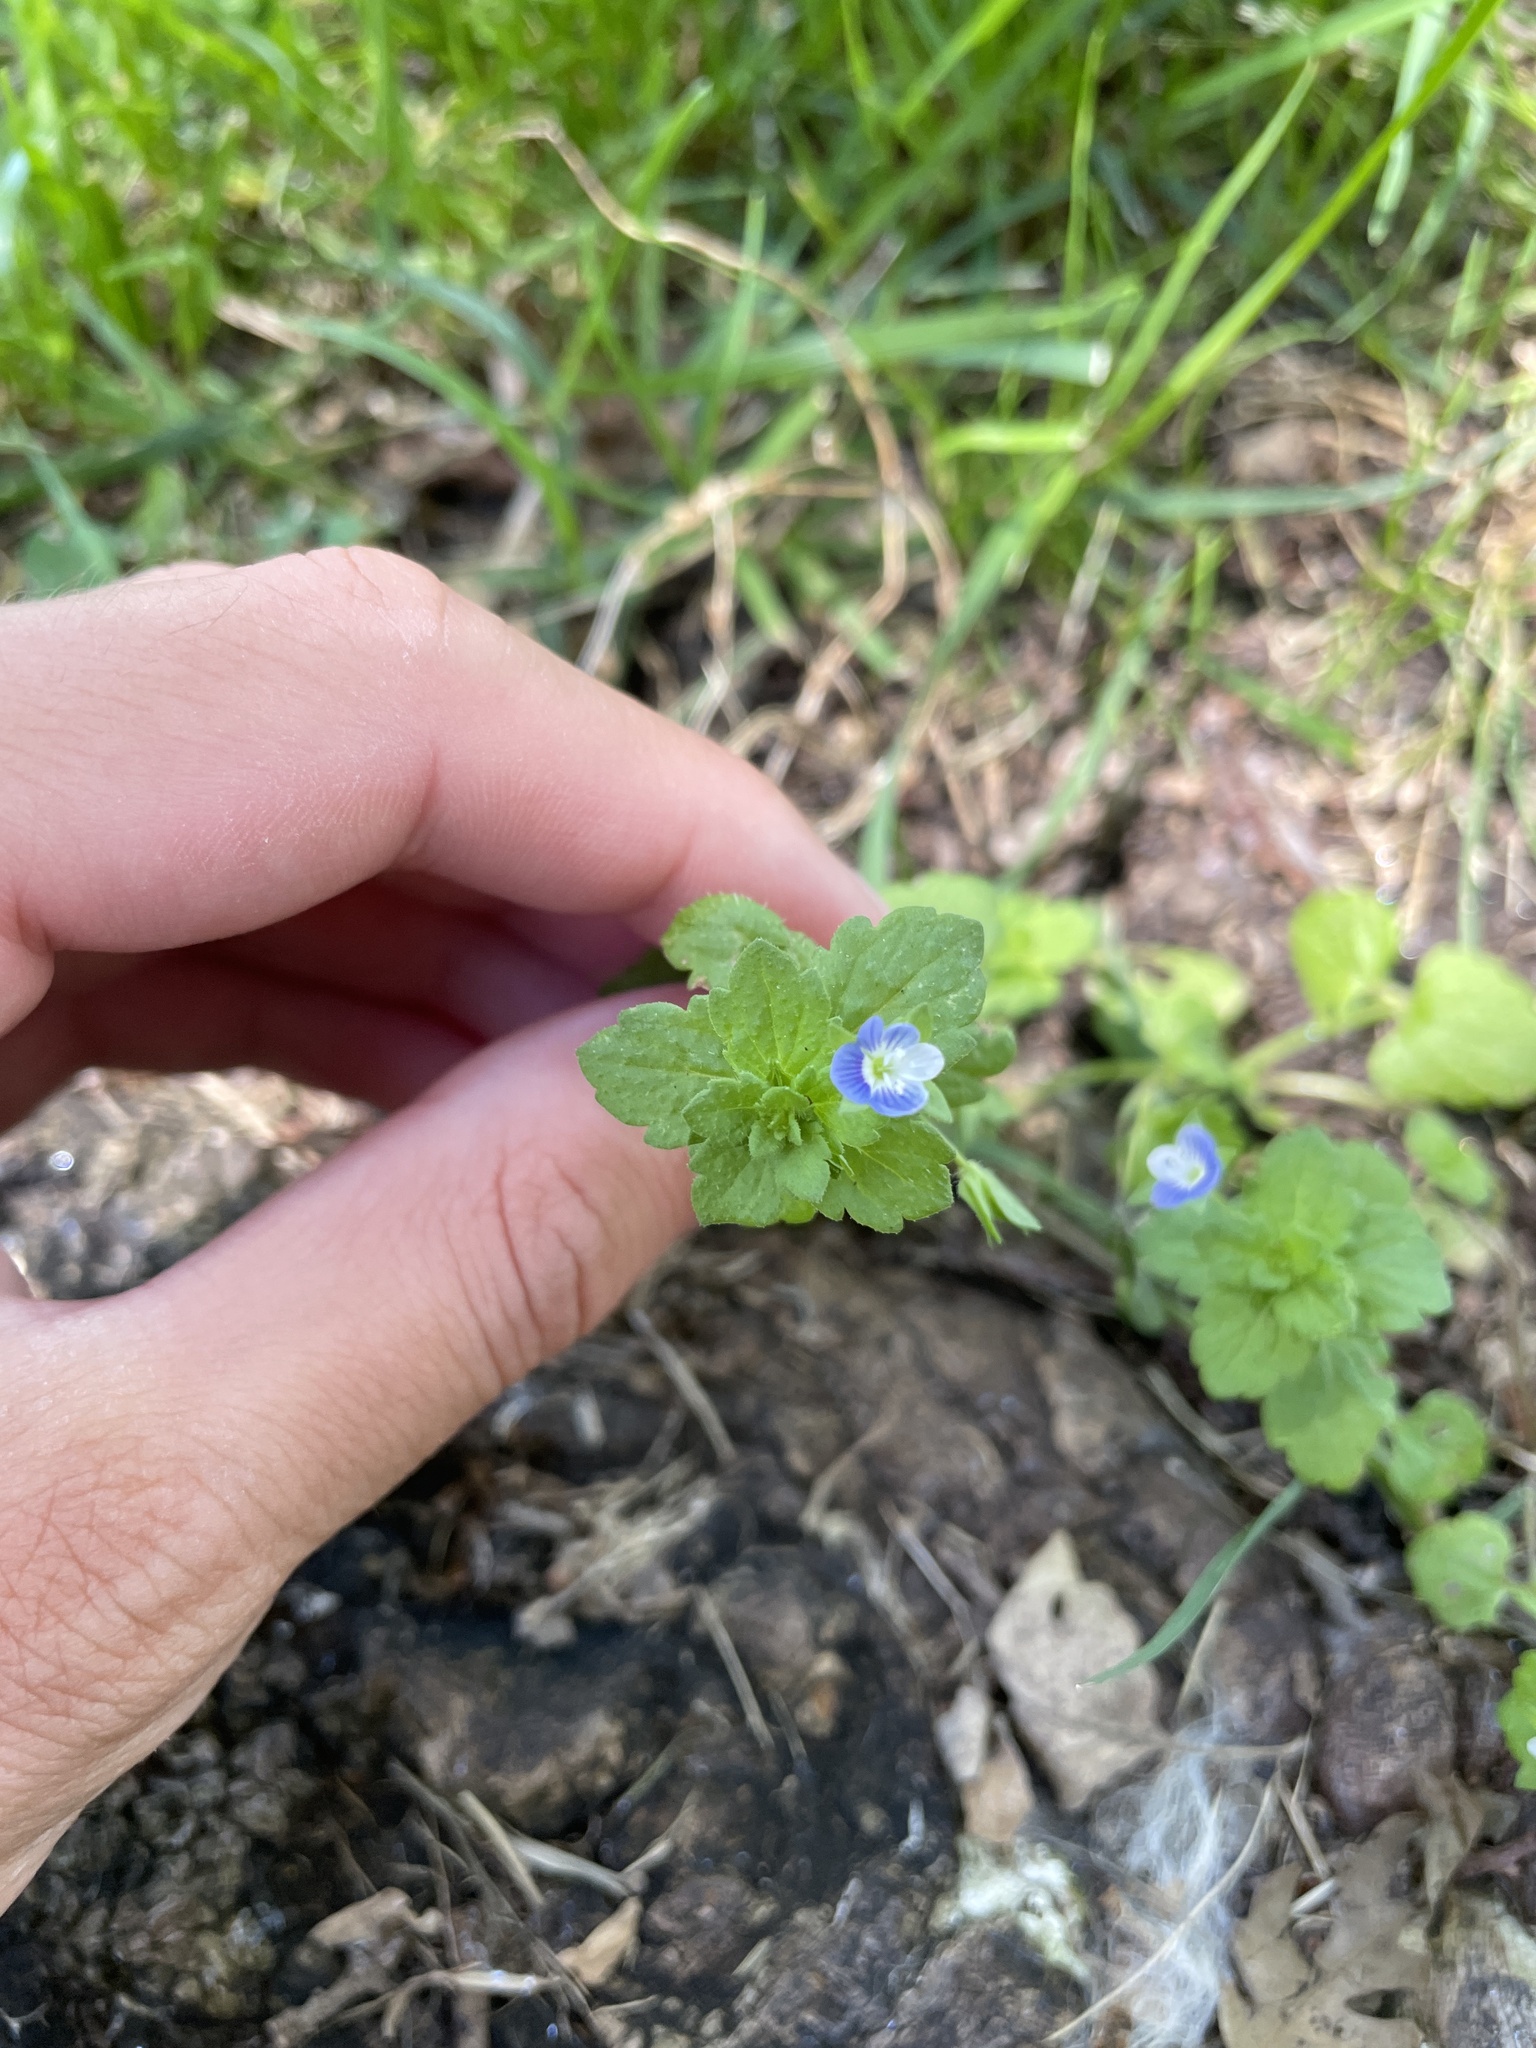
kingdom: Plantae
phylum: Tracheophyta
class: Magnoliopsida
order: Lamiales
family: Plantaginaceae
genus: Veronica
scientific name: Veronica persica
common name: Common field-speedwell
